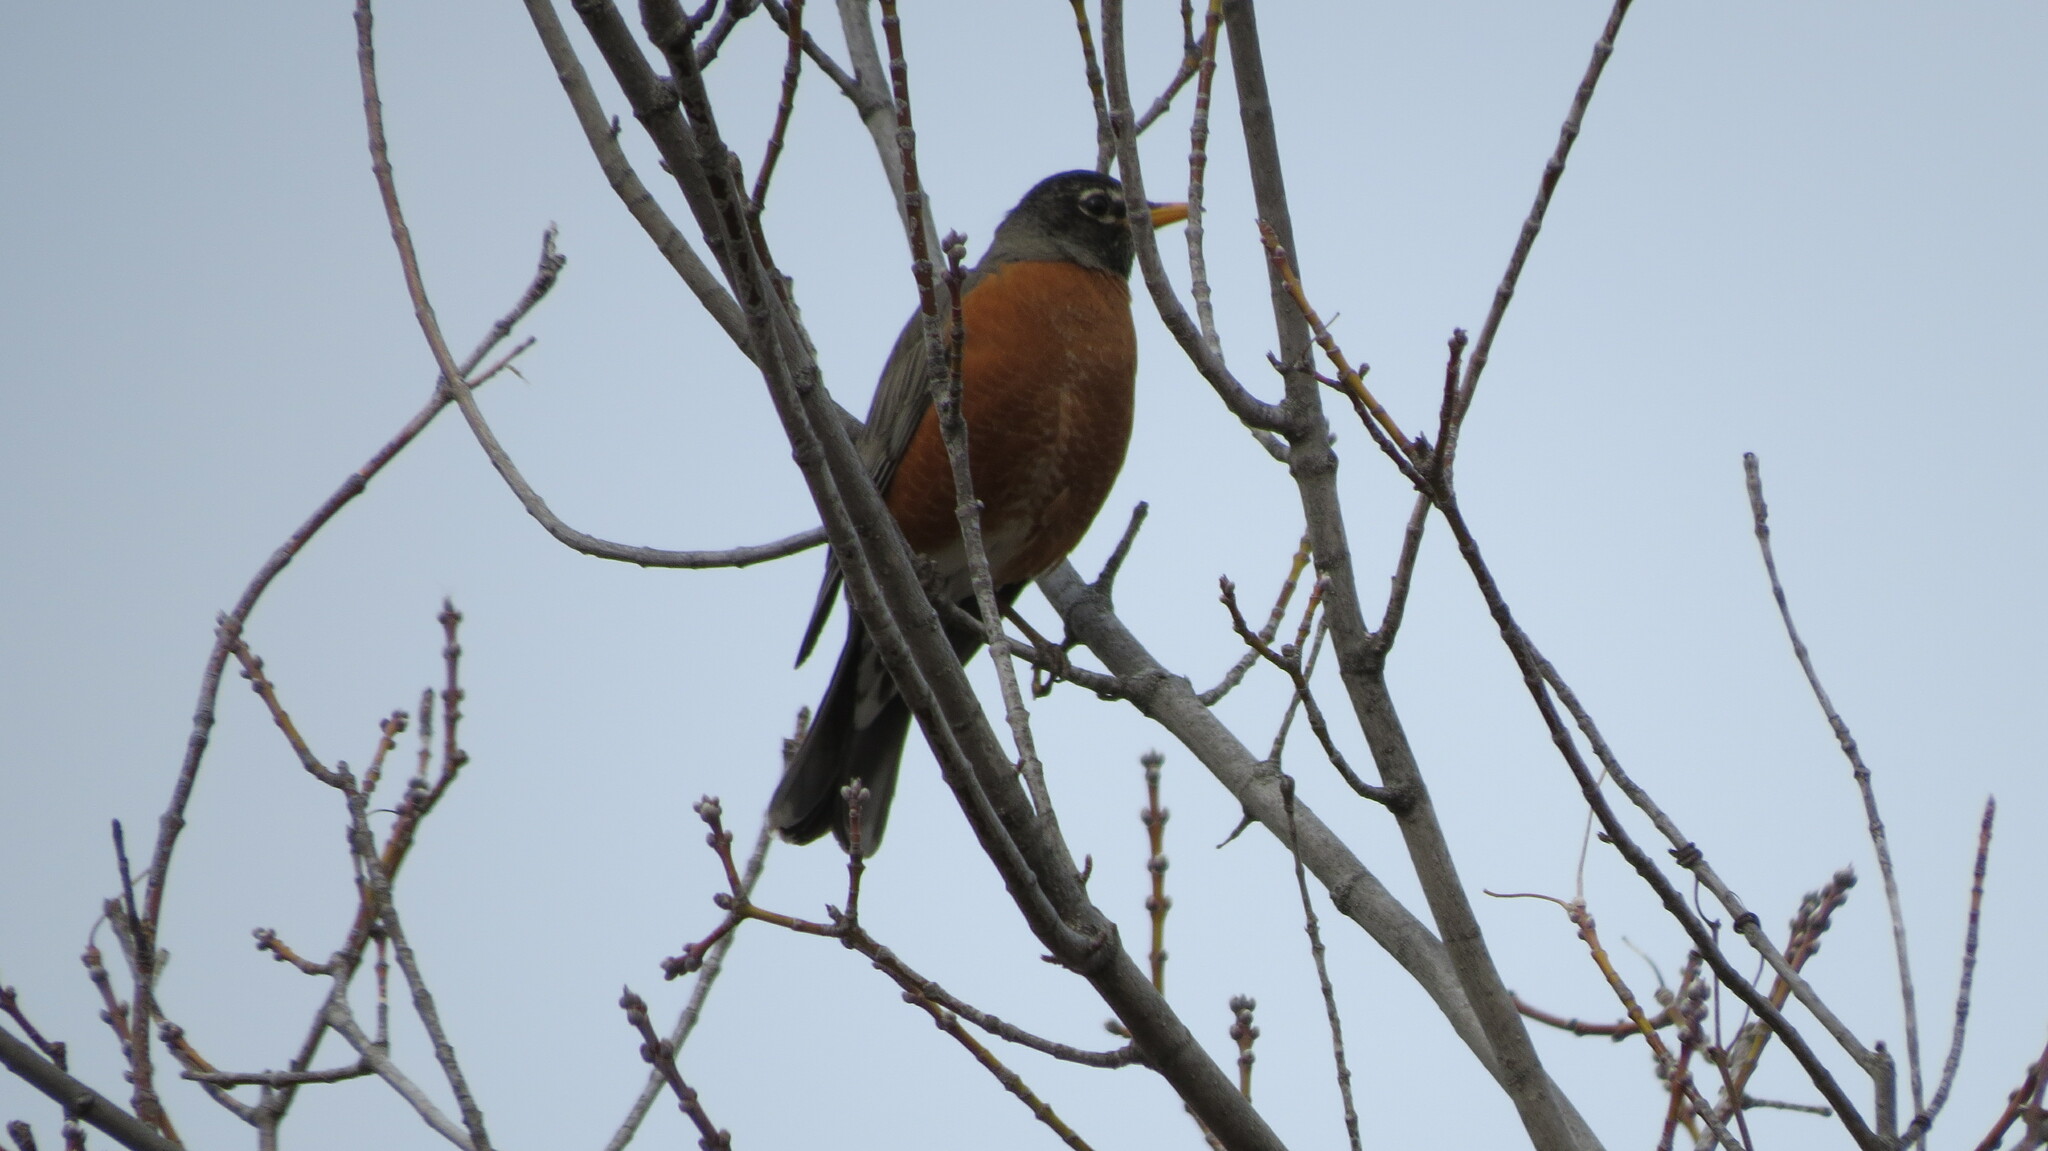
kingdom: Animalia
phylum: Chordata
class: Aves
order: Passeriformes
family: Turdidae
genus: Turdus
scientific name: Turdus migratorius
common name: American robin
